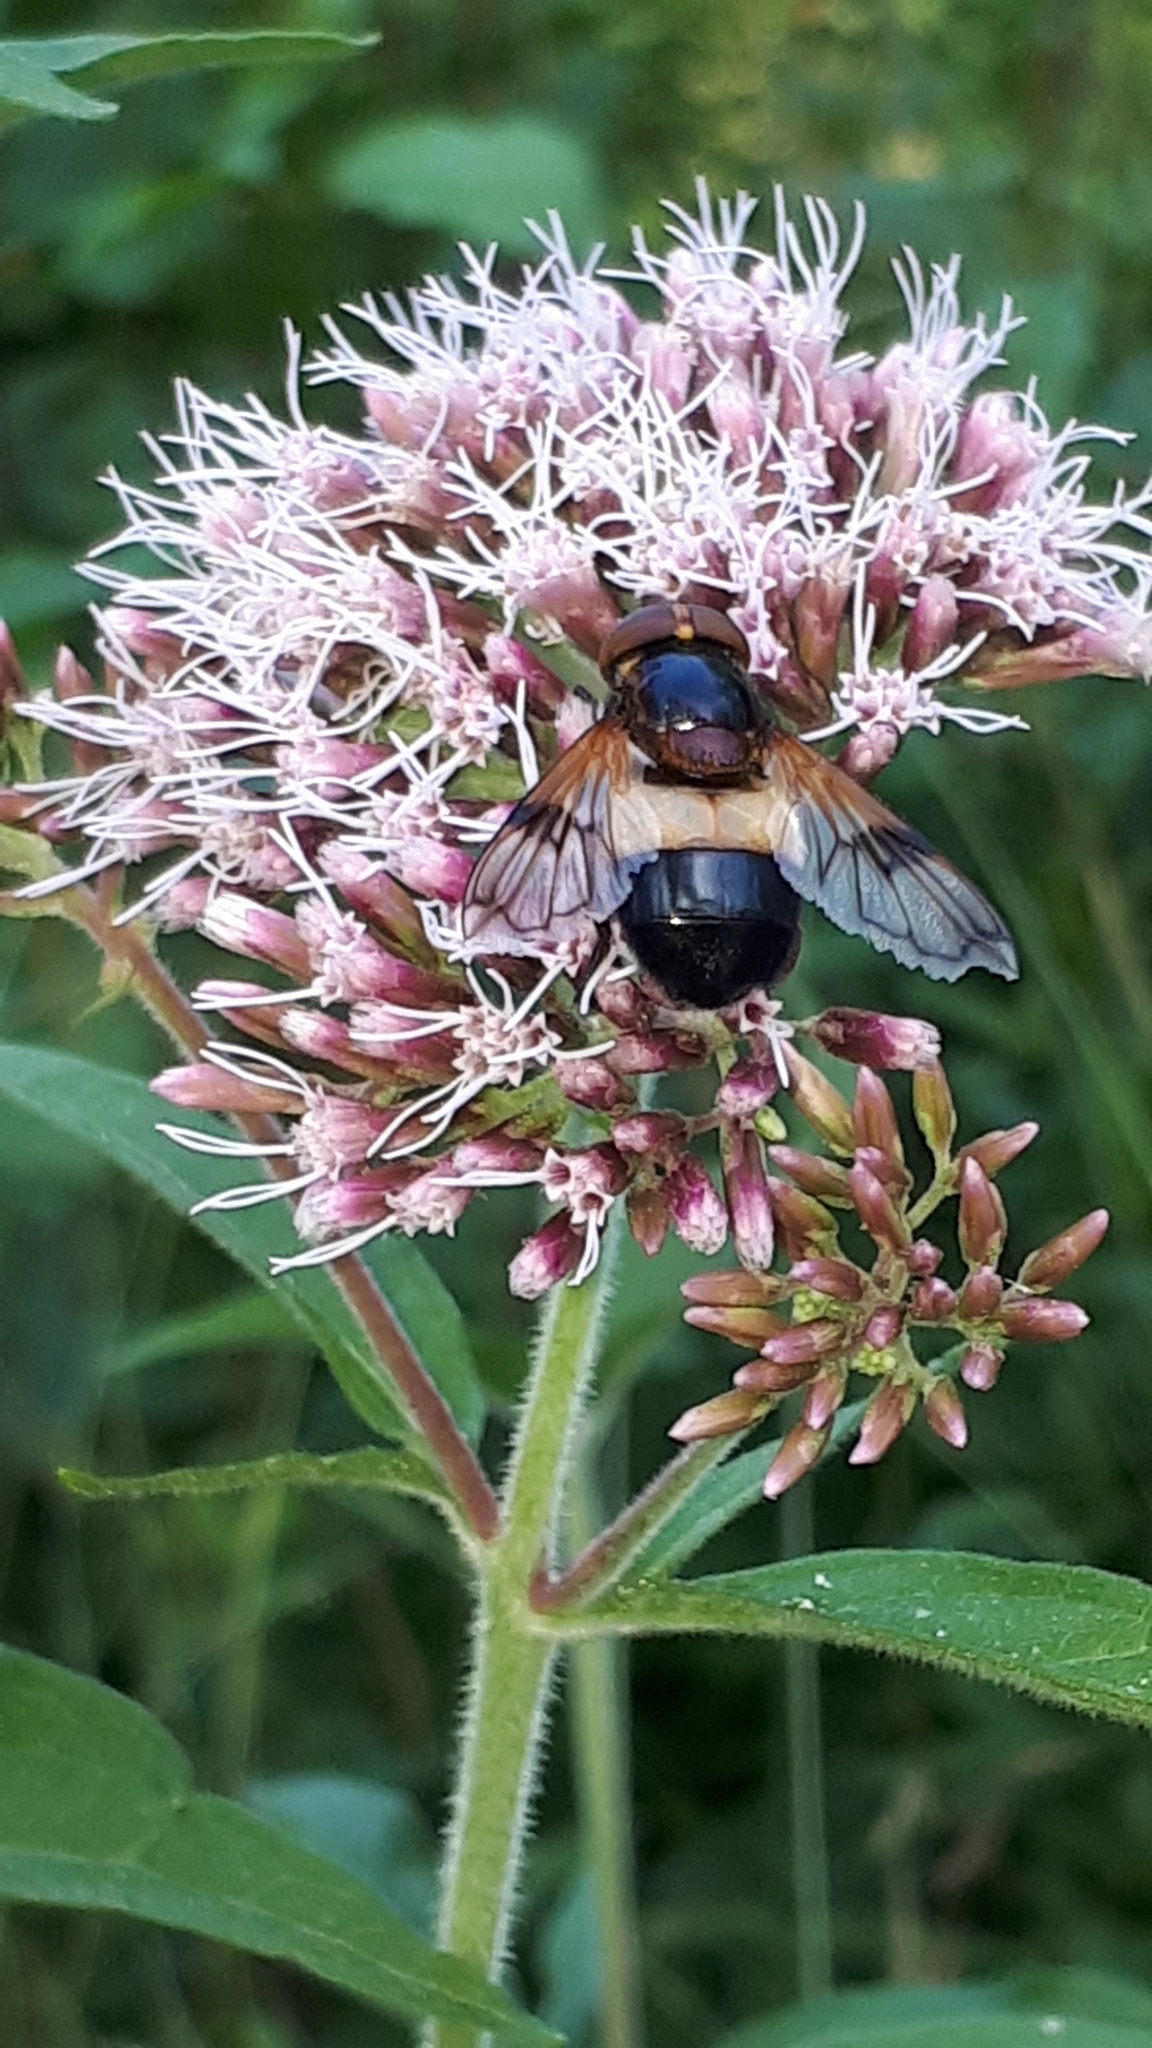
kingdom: Animalia
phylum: Arthropoda
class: Insecta
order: Diptera
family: Syrphidae
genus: Volucella
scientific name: Volucella pellucens
